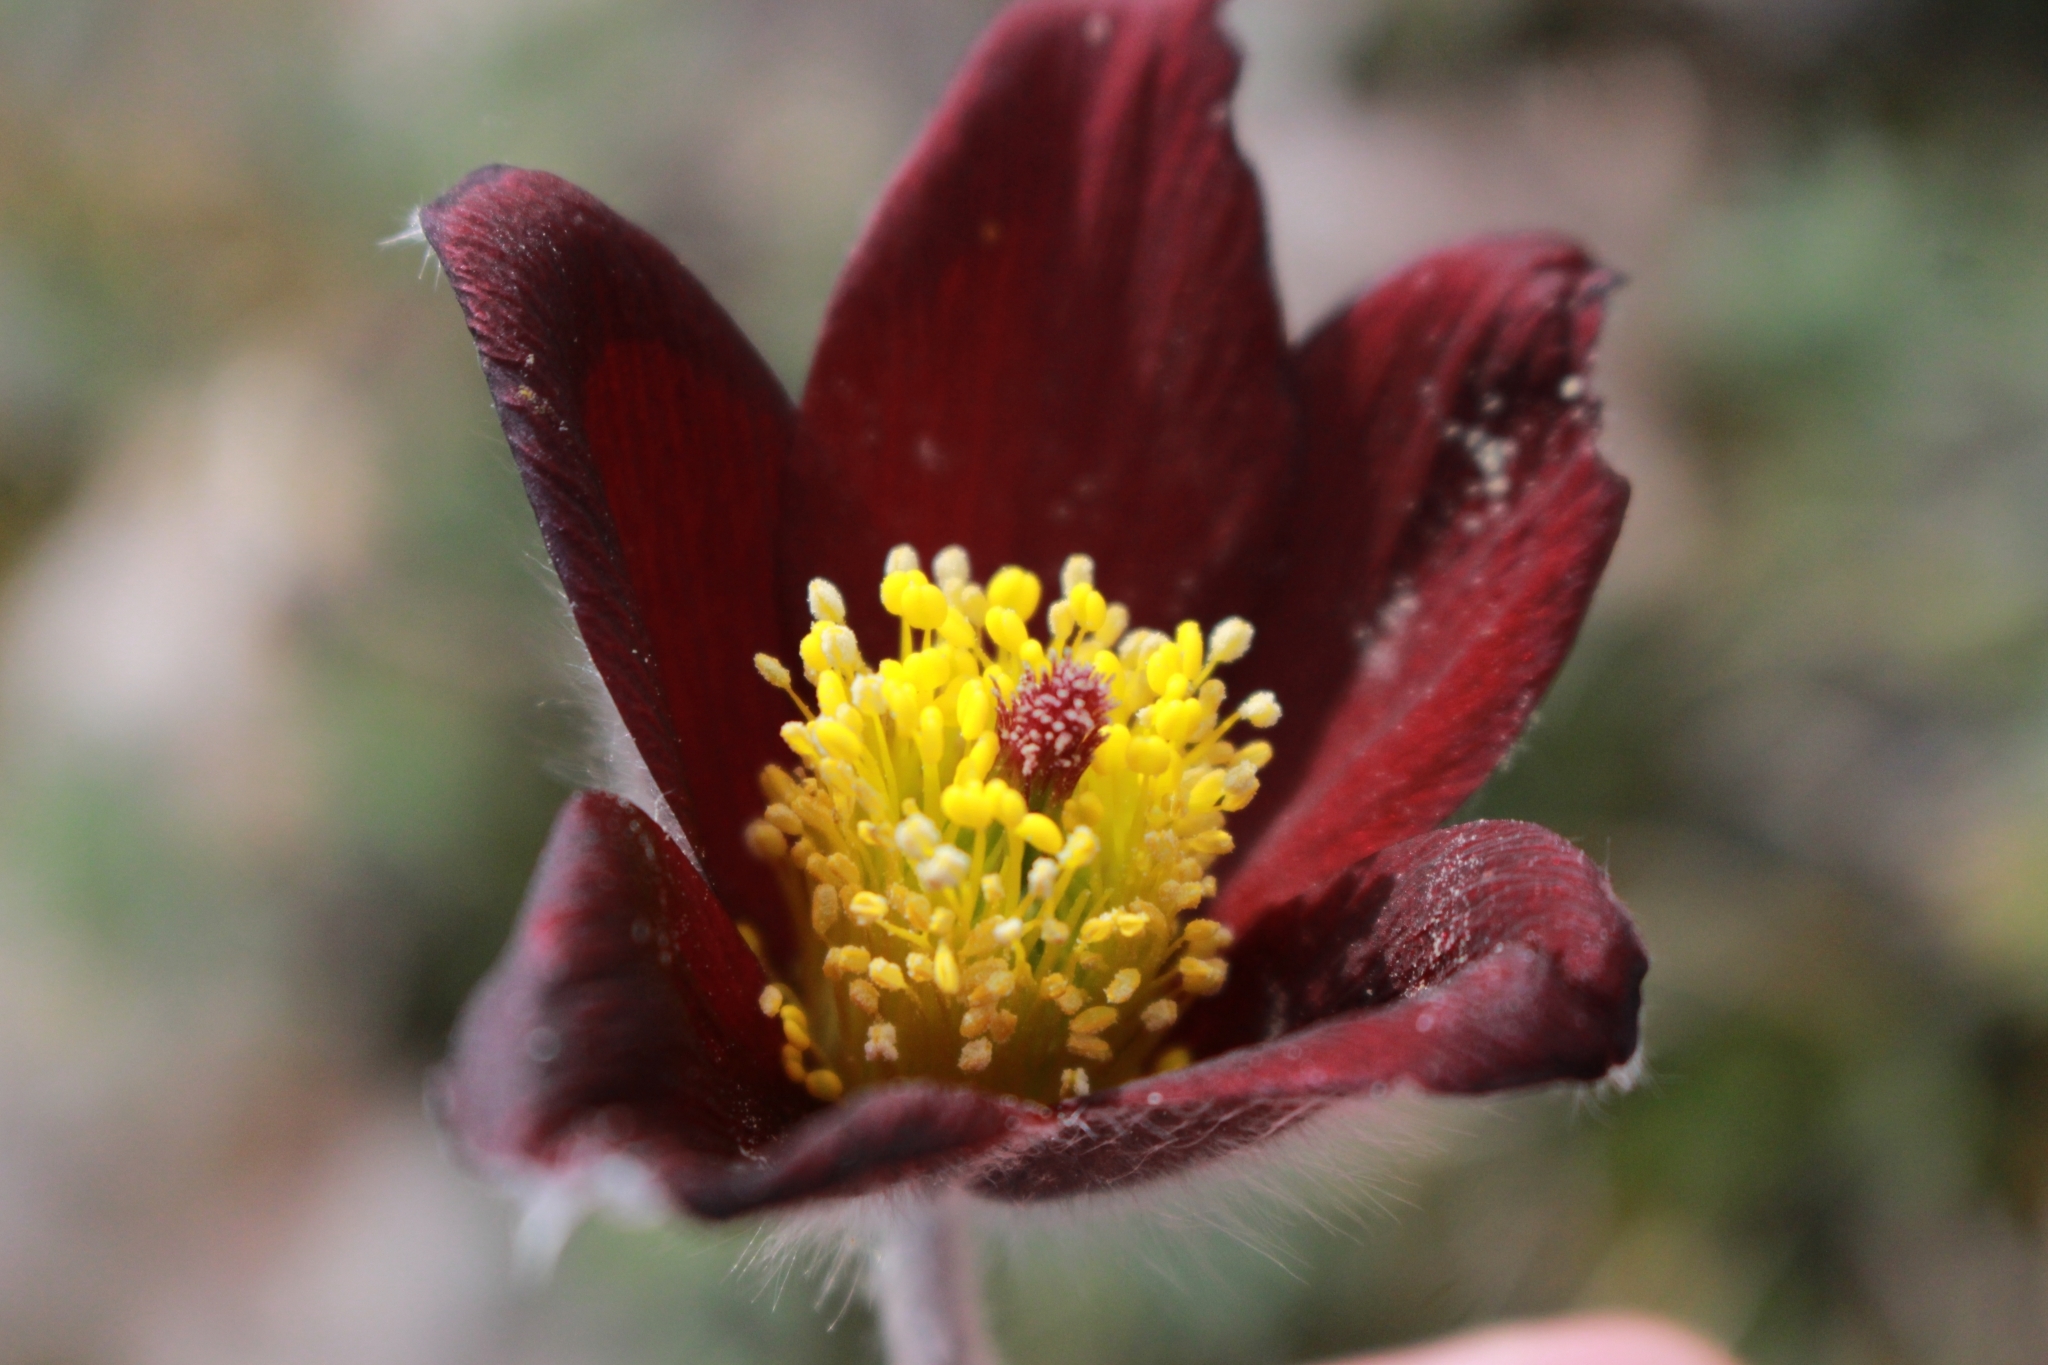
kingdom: Plantae
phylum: Tracheophyta
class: Magnoliopsida
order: Ranunculales
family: Ranunculaceae
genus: Pulsatilla
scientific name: Pulsatilla rubra
